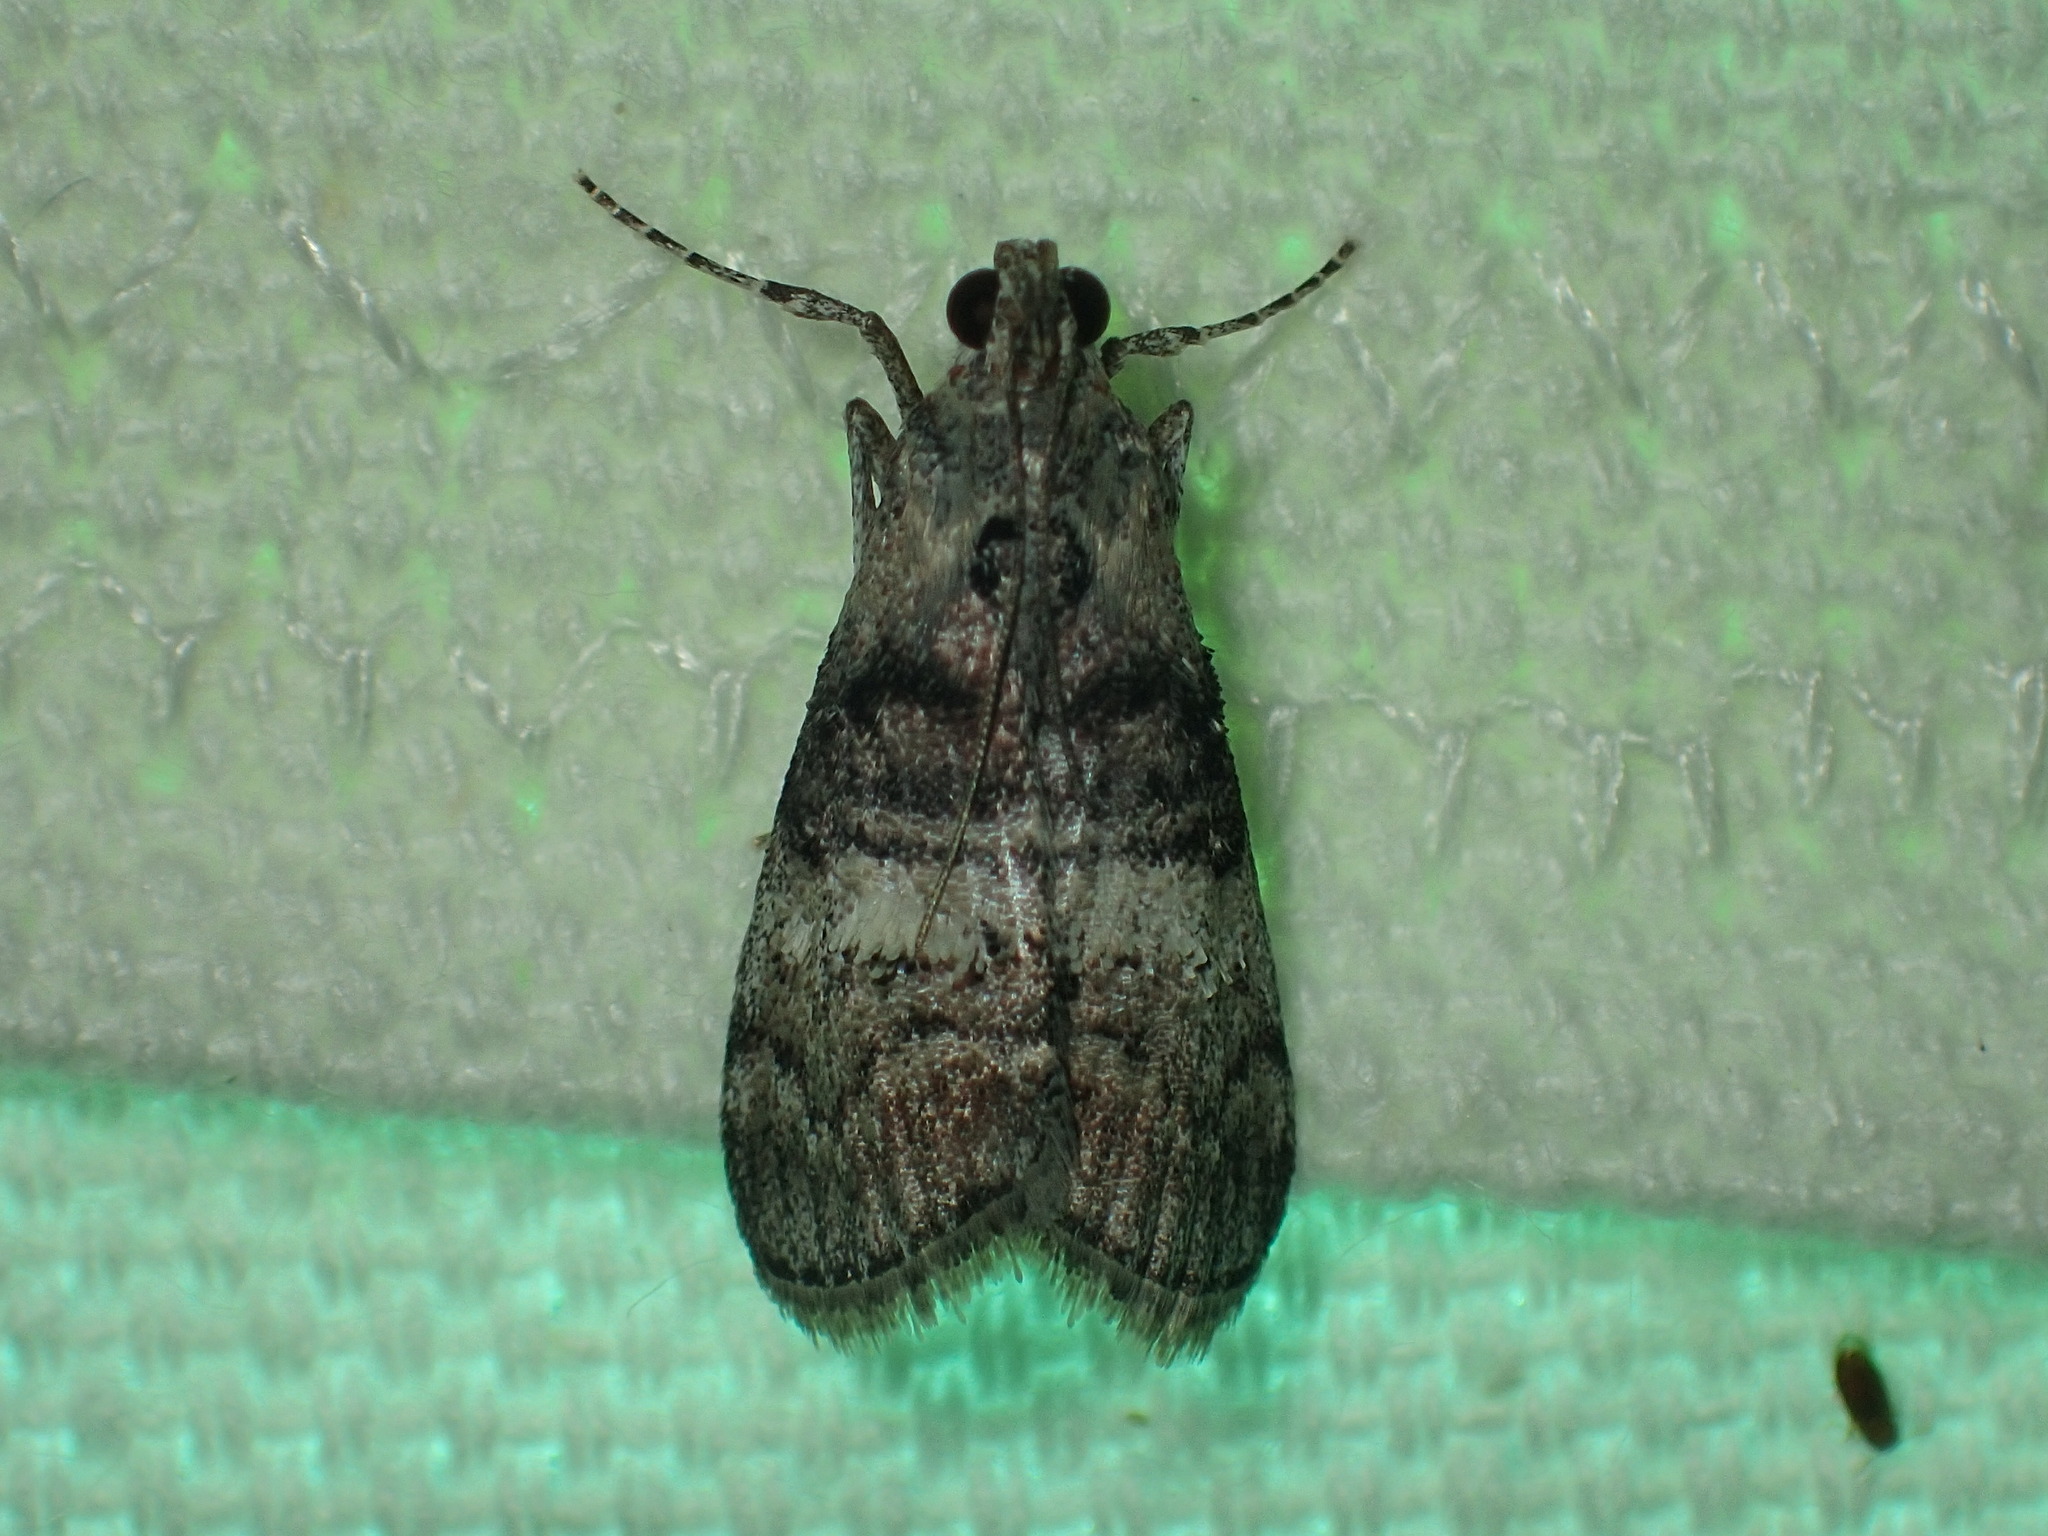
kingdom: Animalia
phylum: Arthropoda
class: Insecta
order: Lepidoptera
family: Pyralidae
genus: Pococera
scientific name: Pococera asperatella
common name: Maple webworm moth
